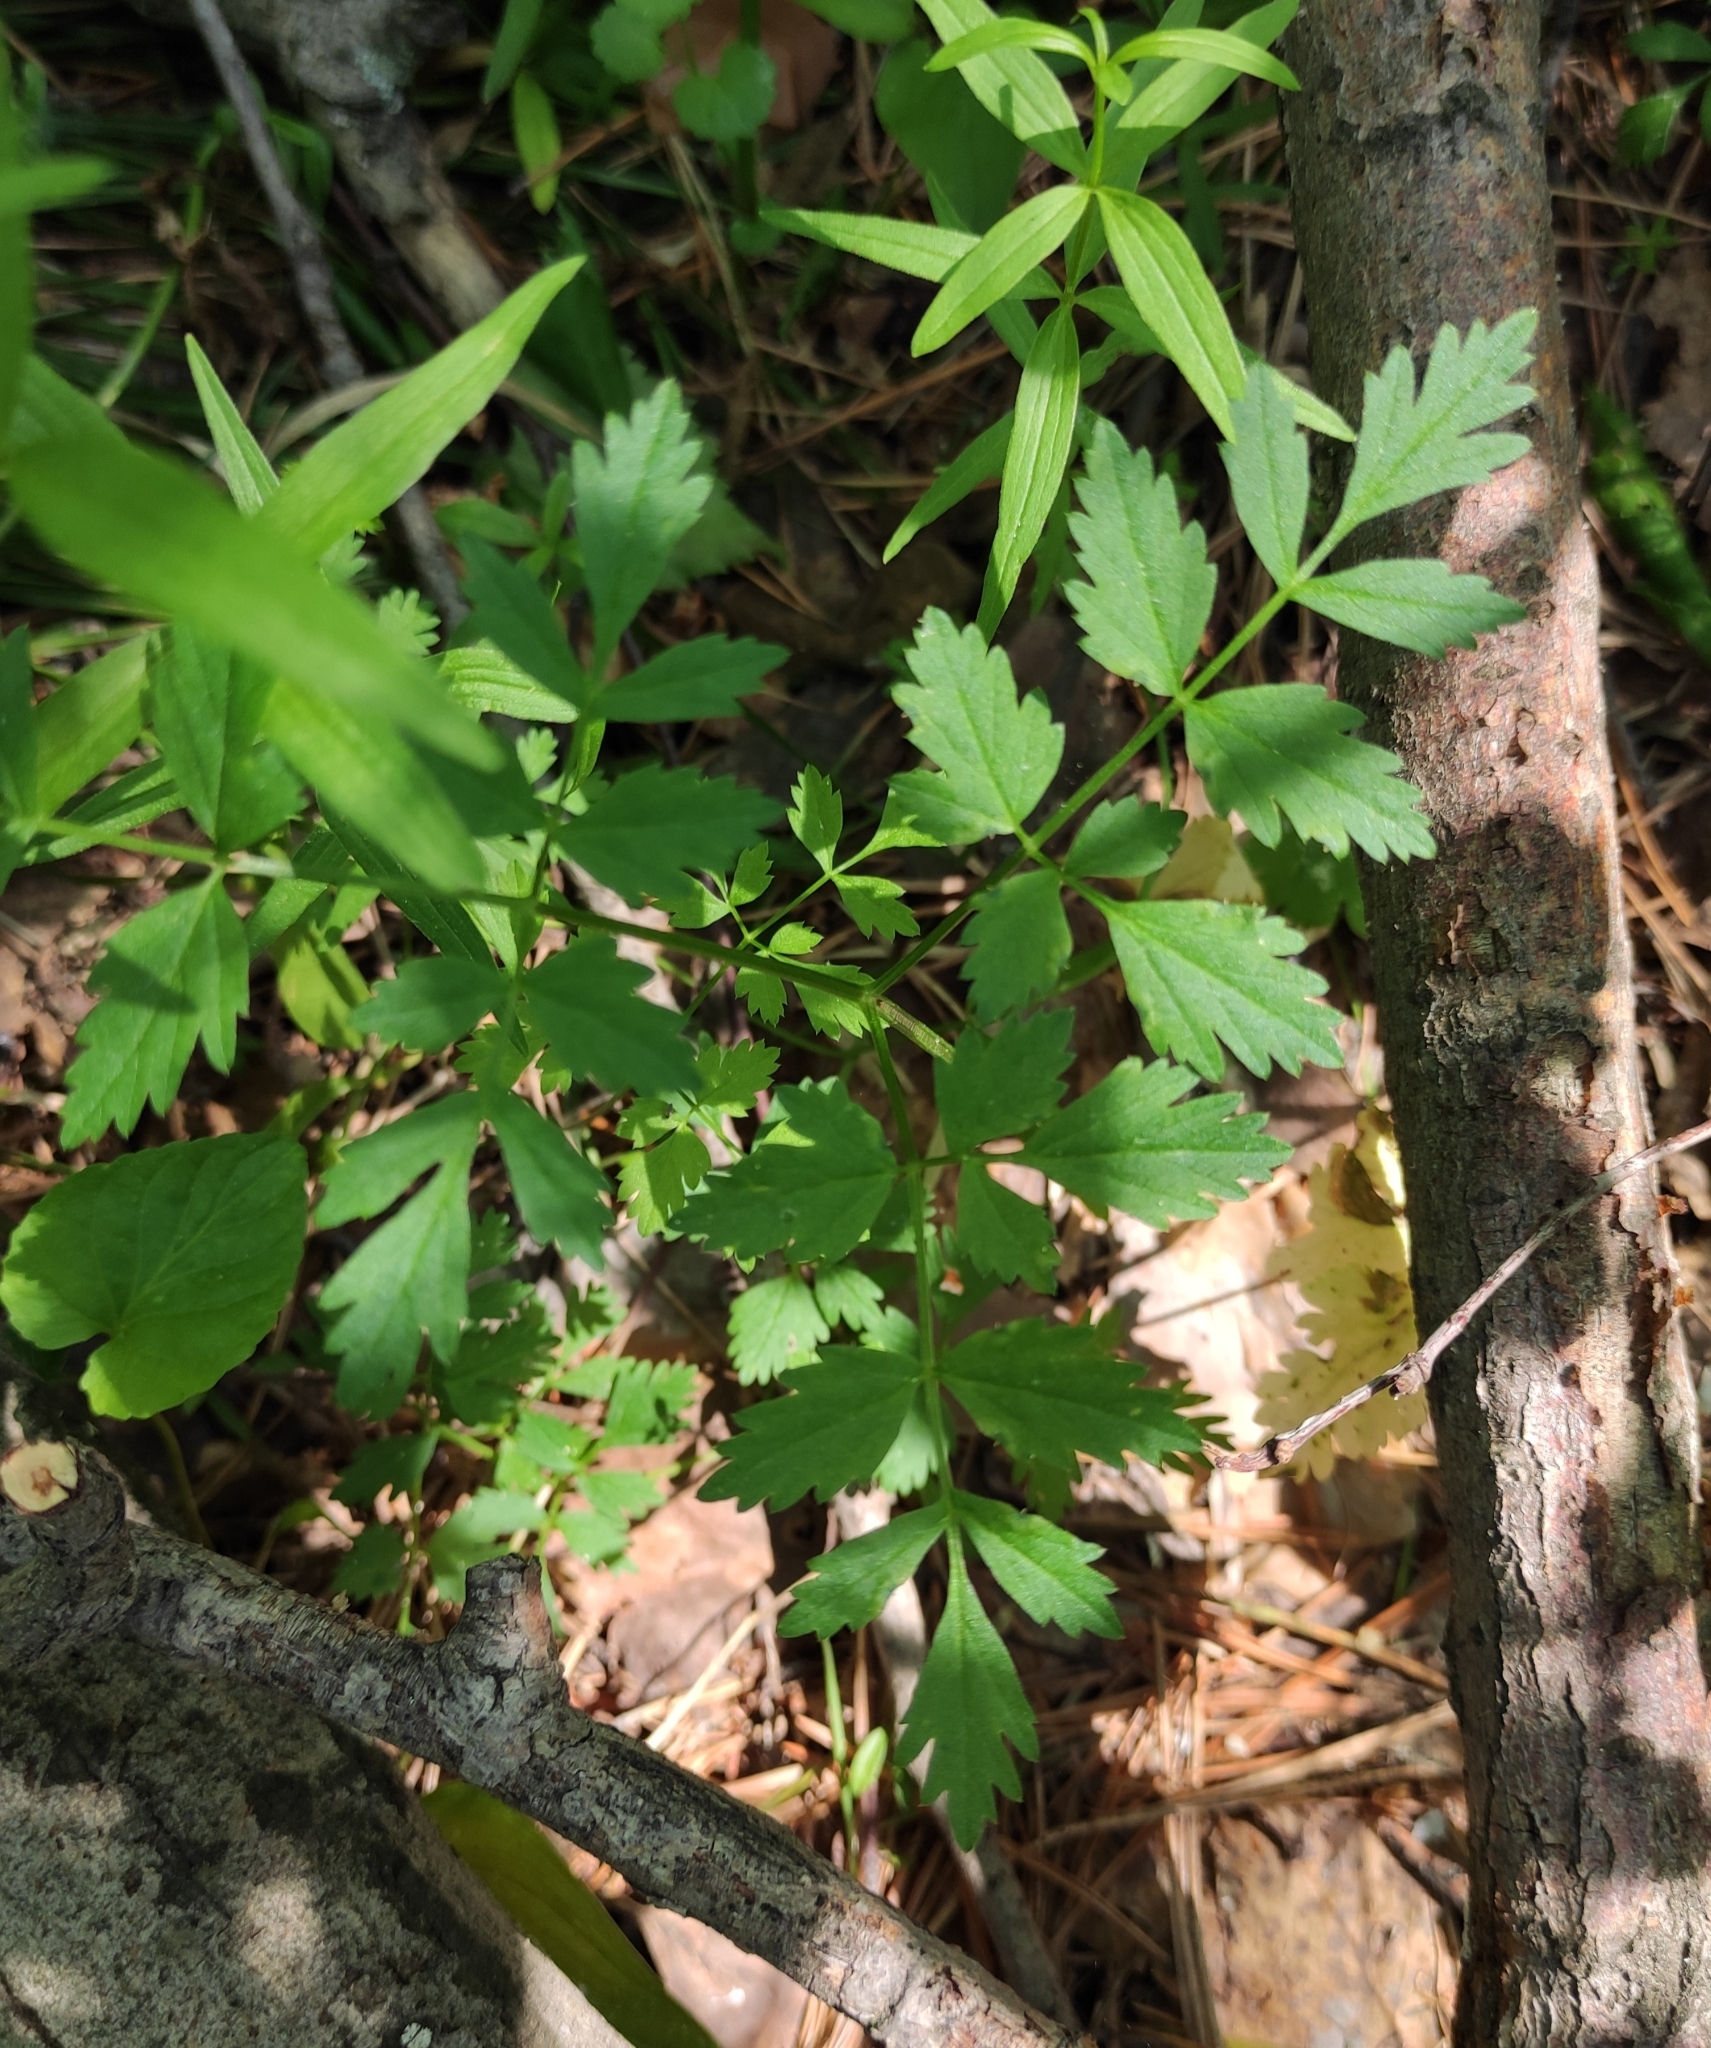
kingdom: Plantae
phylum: Tracheophyta
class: Magnoliopsida
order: Apiales
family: Apiaceae
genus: Aegopodium
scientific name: Aegopodium alpestre
